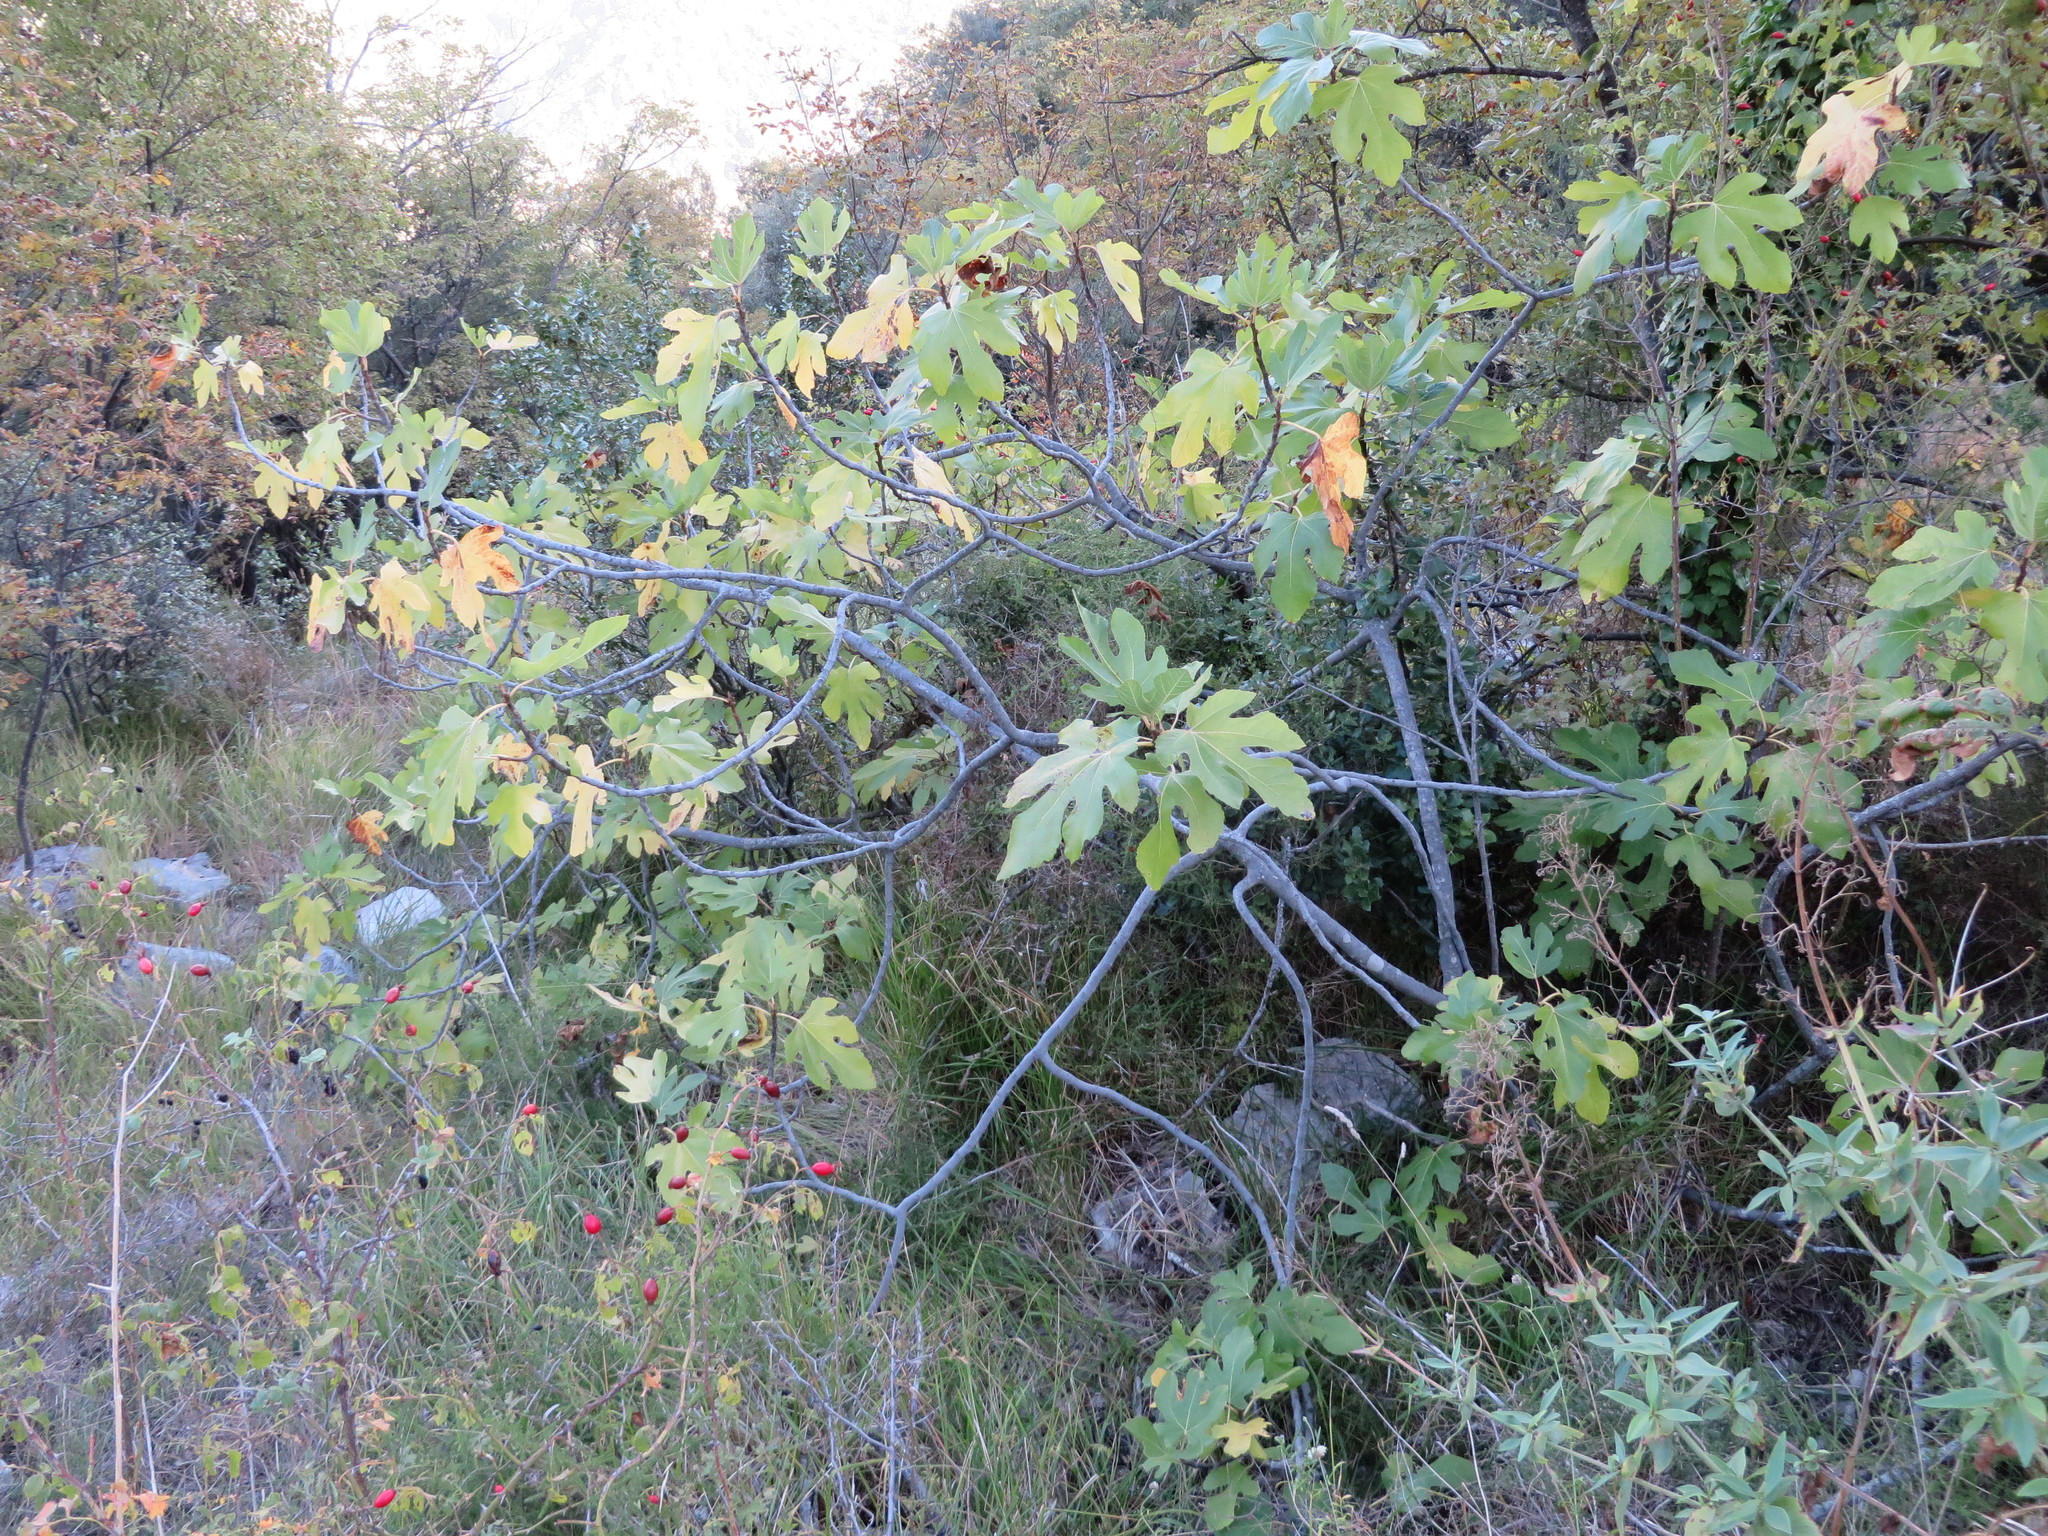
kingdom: Plantae
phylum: Tracheophyta
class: Magnoliopsida
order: Rosales
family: Moraceae
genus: Ficus
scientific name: Ficus carica
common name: Fig
